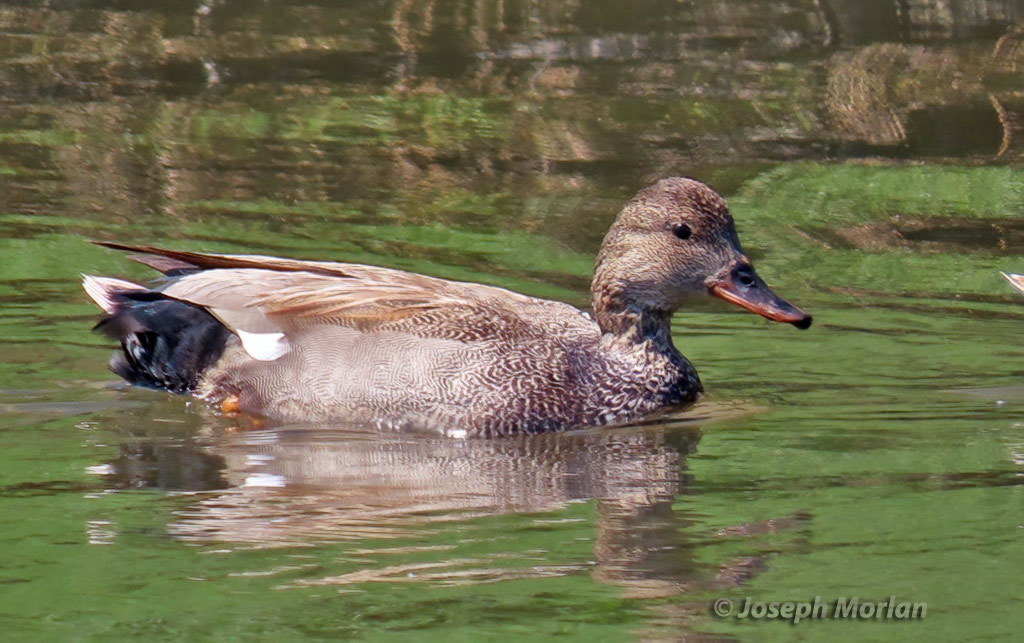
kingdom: Animalia
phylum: Chordata
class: Aves
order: Anseriformes
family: Anatidae
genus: Mareca
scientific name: Mareca strepera
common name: Gadwall
